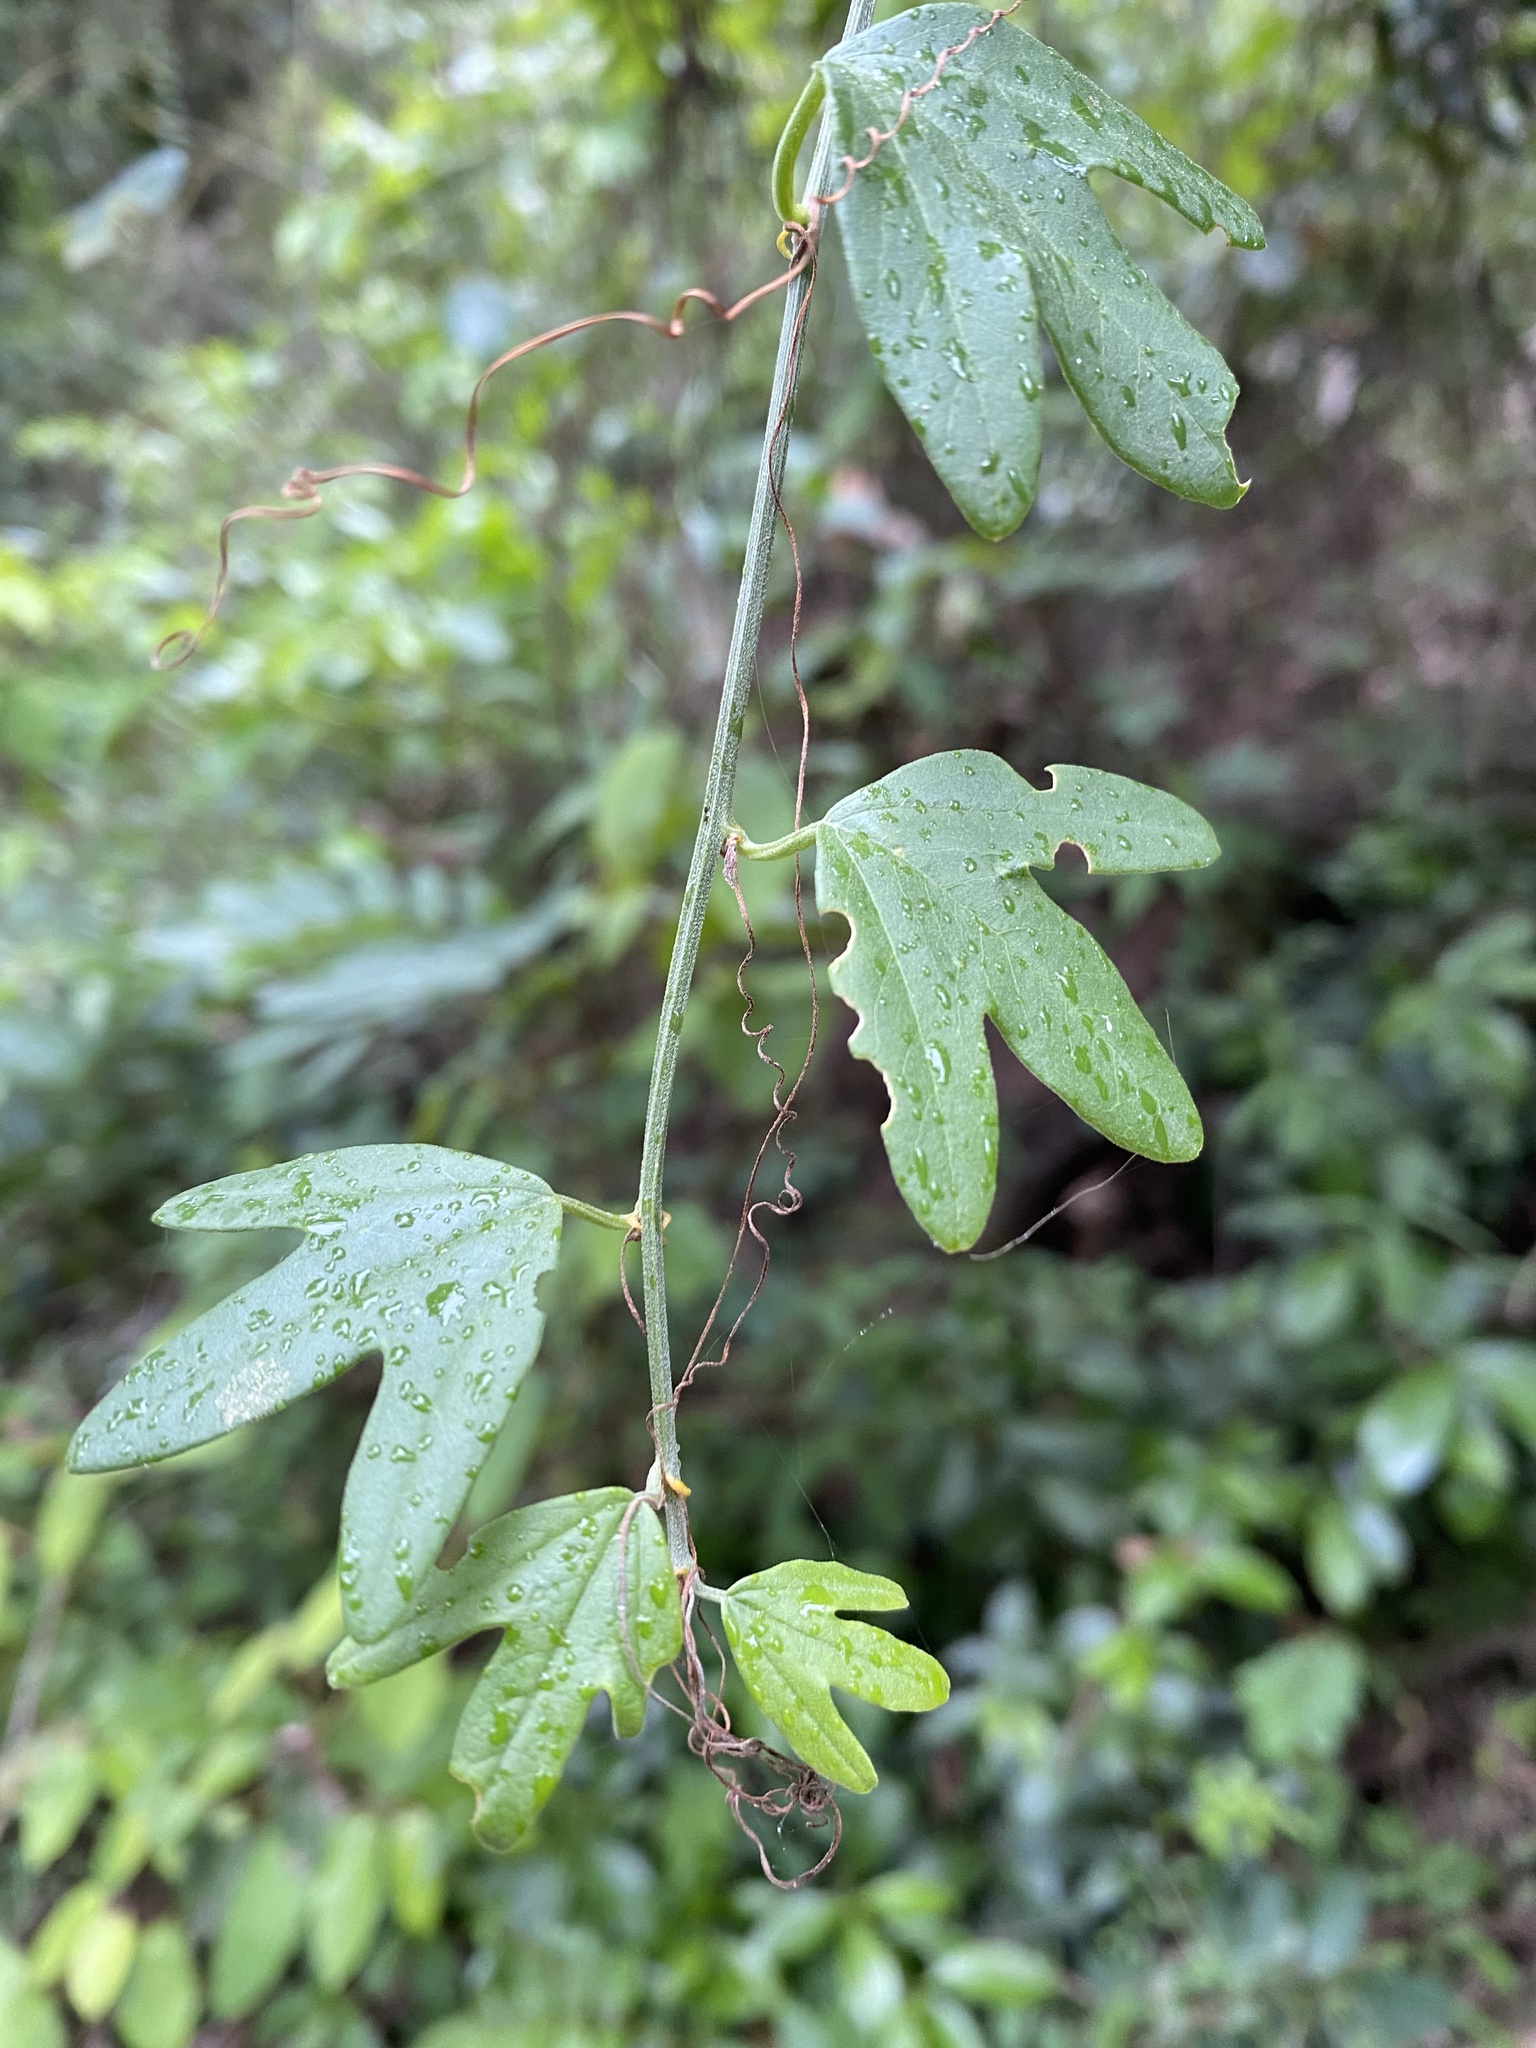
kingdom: Plantae
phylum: Tracheophyta
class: Magnoliopsida
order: Malpighiales
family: Passifloraceae
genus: Passiflora
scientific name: Passiflora herbertiana
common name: Yellow passionflower
